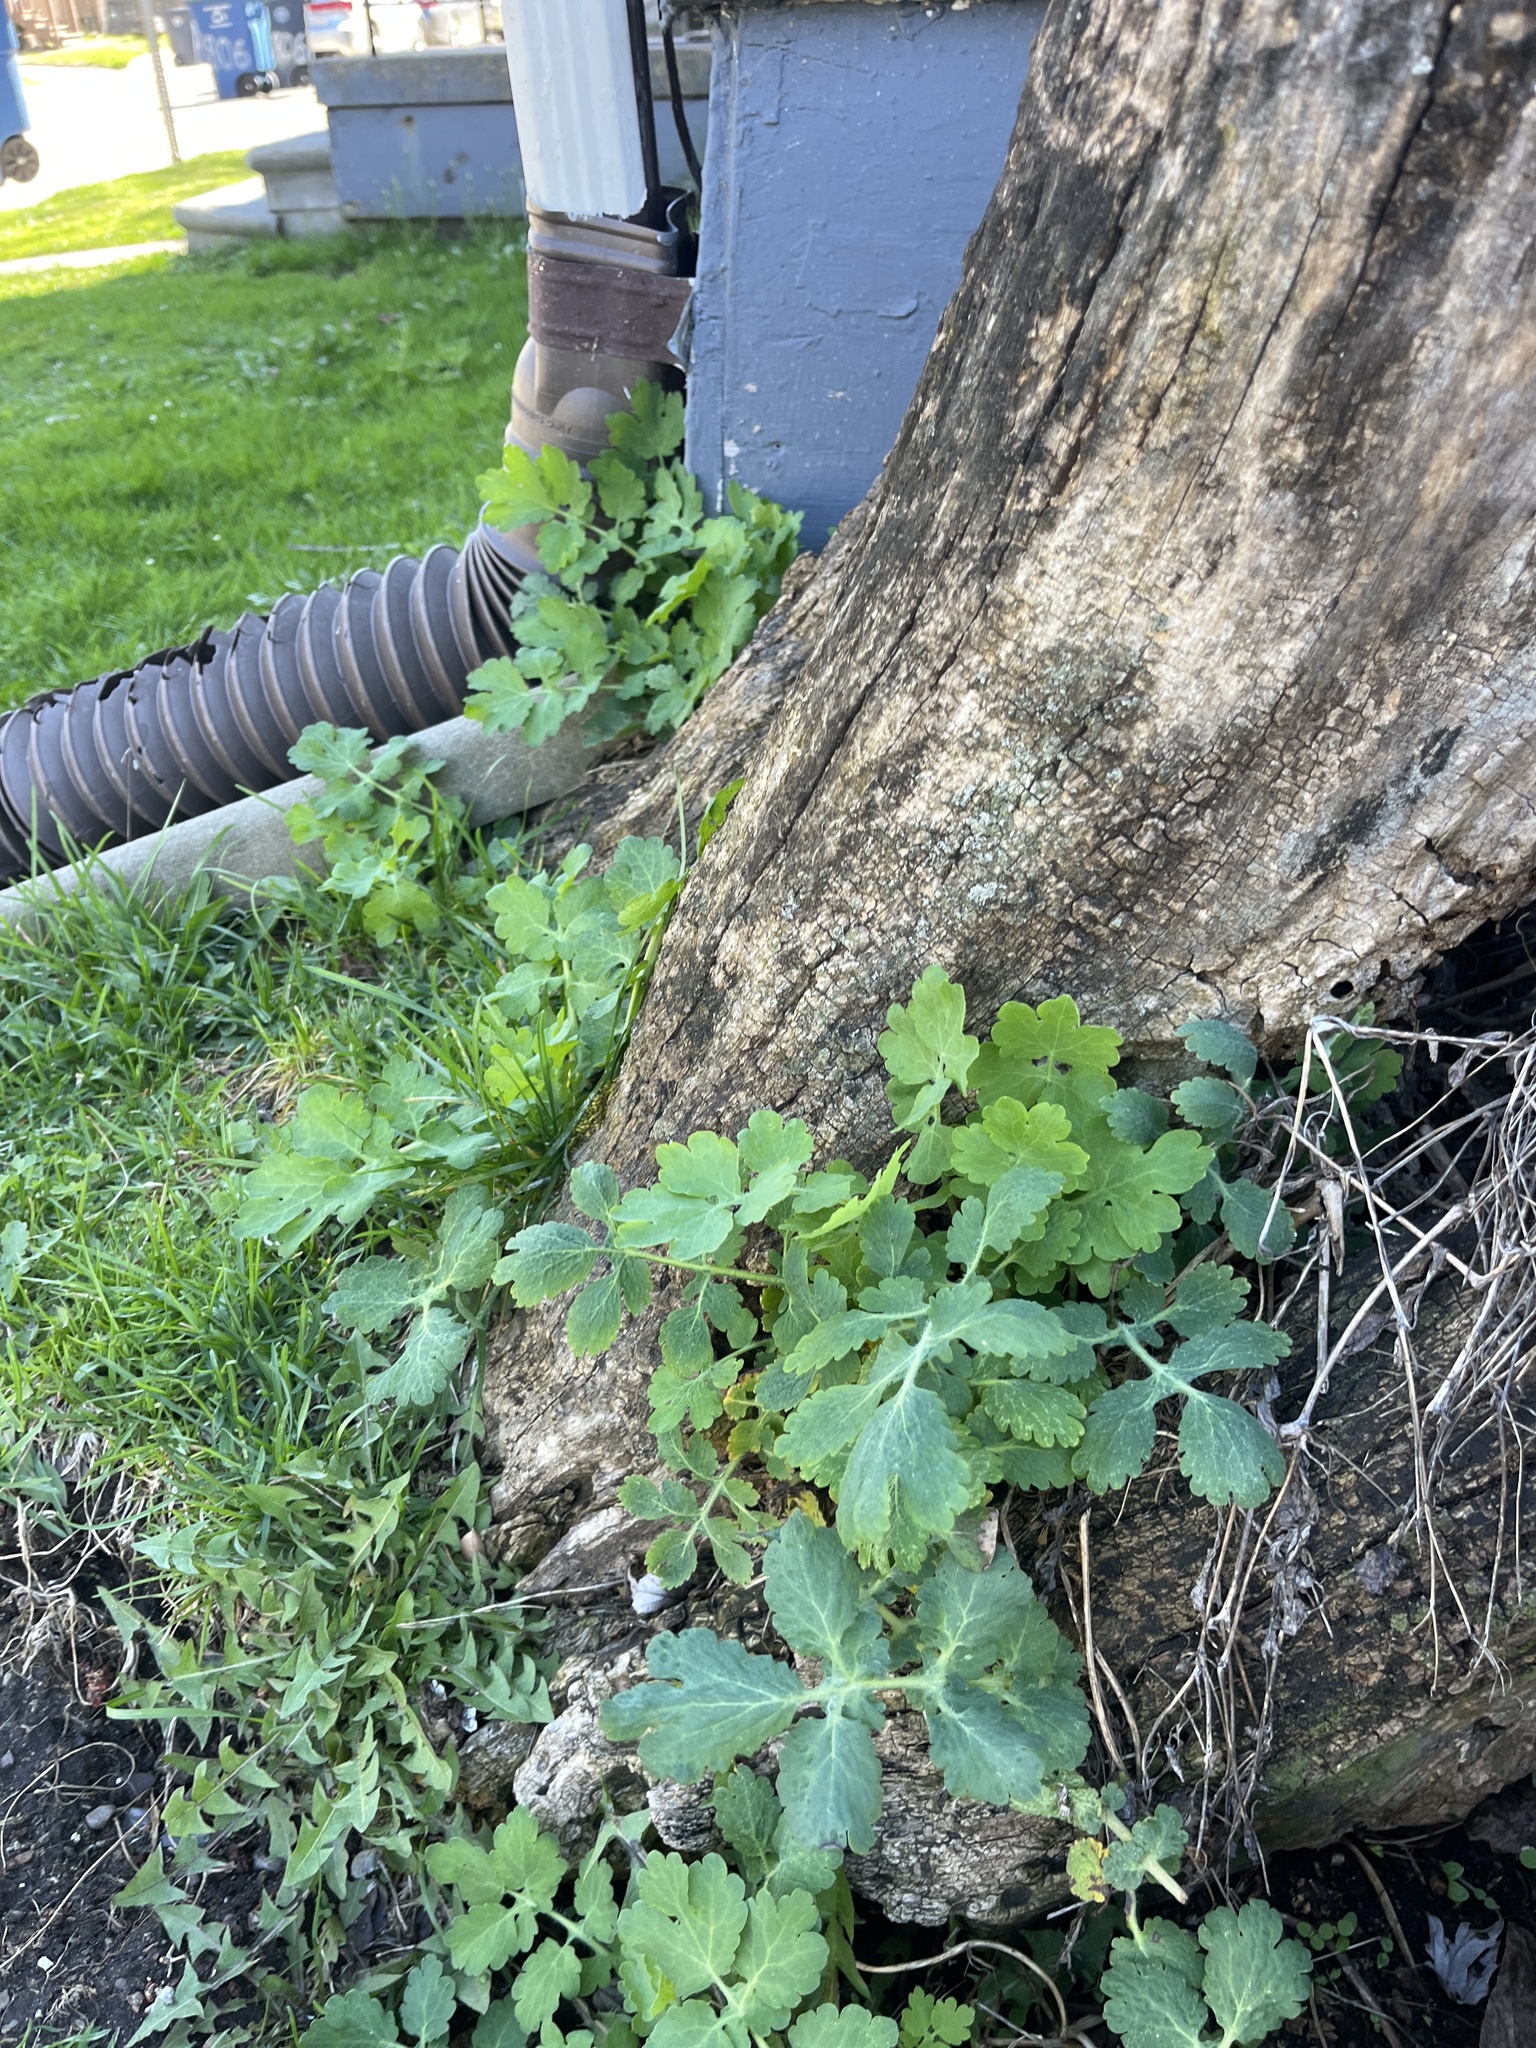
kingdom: Plantae
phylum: Tracheophyta
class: Magnoliopsida
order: Ranunculales
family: Papaveraceae
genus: Chelidonium
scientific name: Chelidonium majus
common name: Greater celandine
